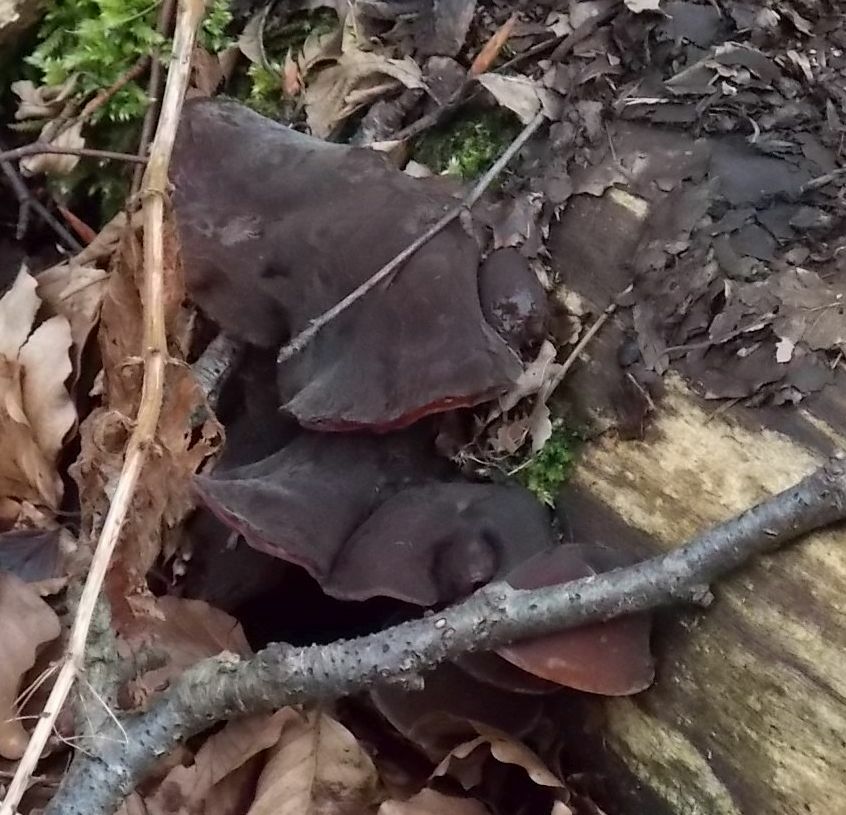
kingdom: Fungi
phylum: Basidiomycota
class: Agaricomycetes
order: Auriculariales
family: Auriculariaceae
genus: Auricularia
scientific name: Auricularia auricula-judae
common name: Jelly ear
